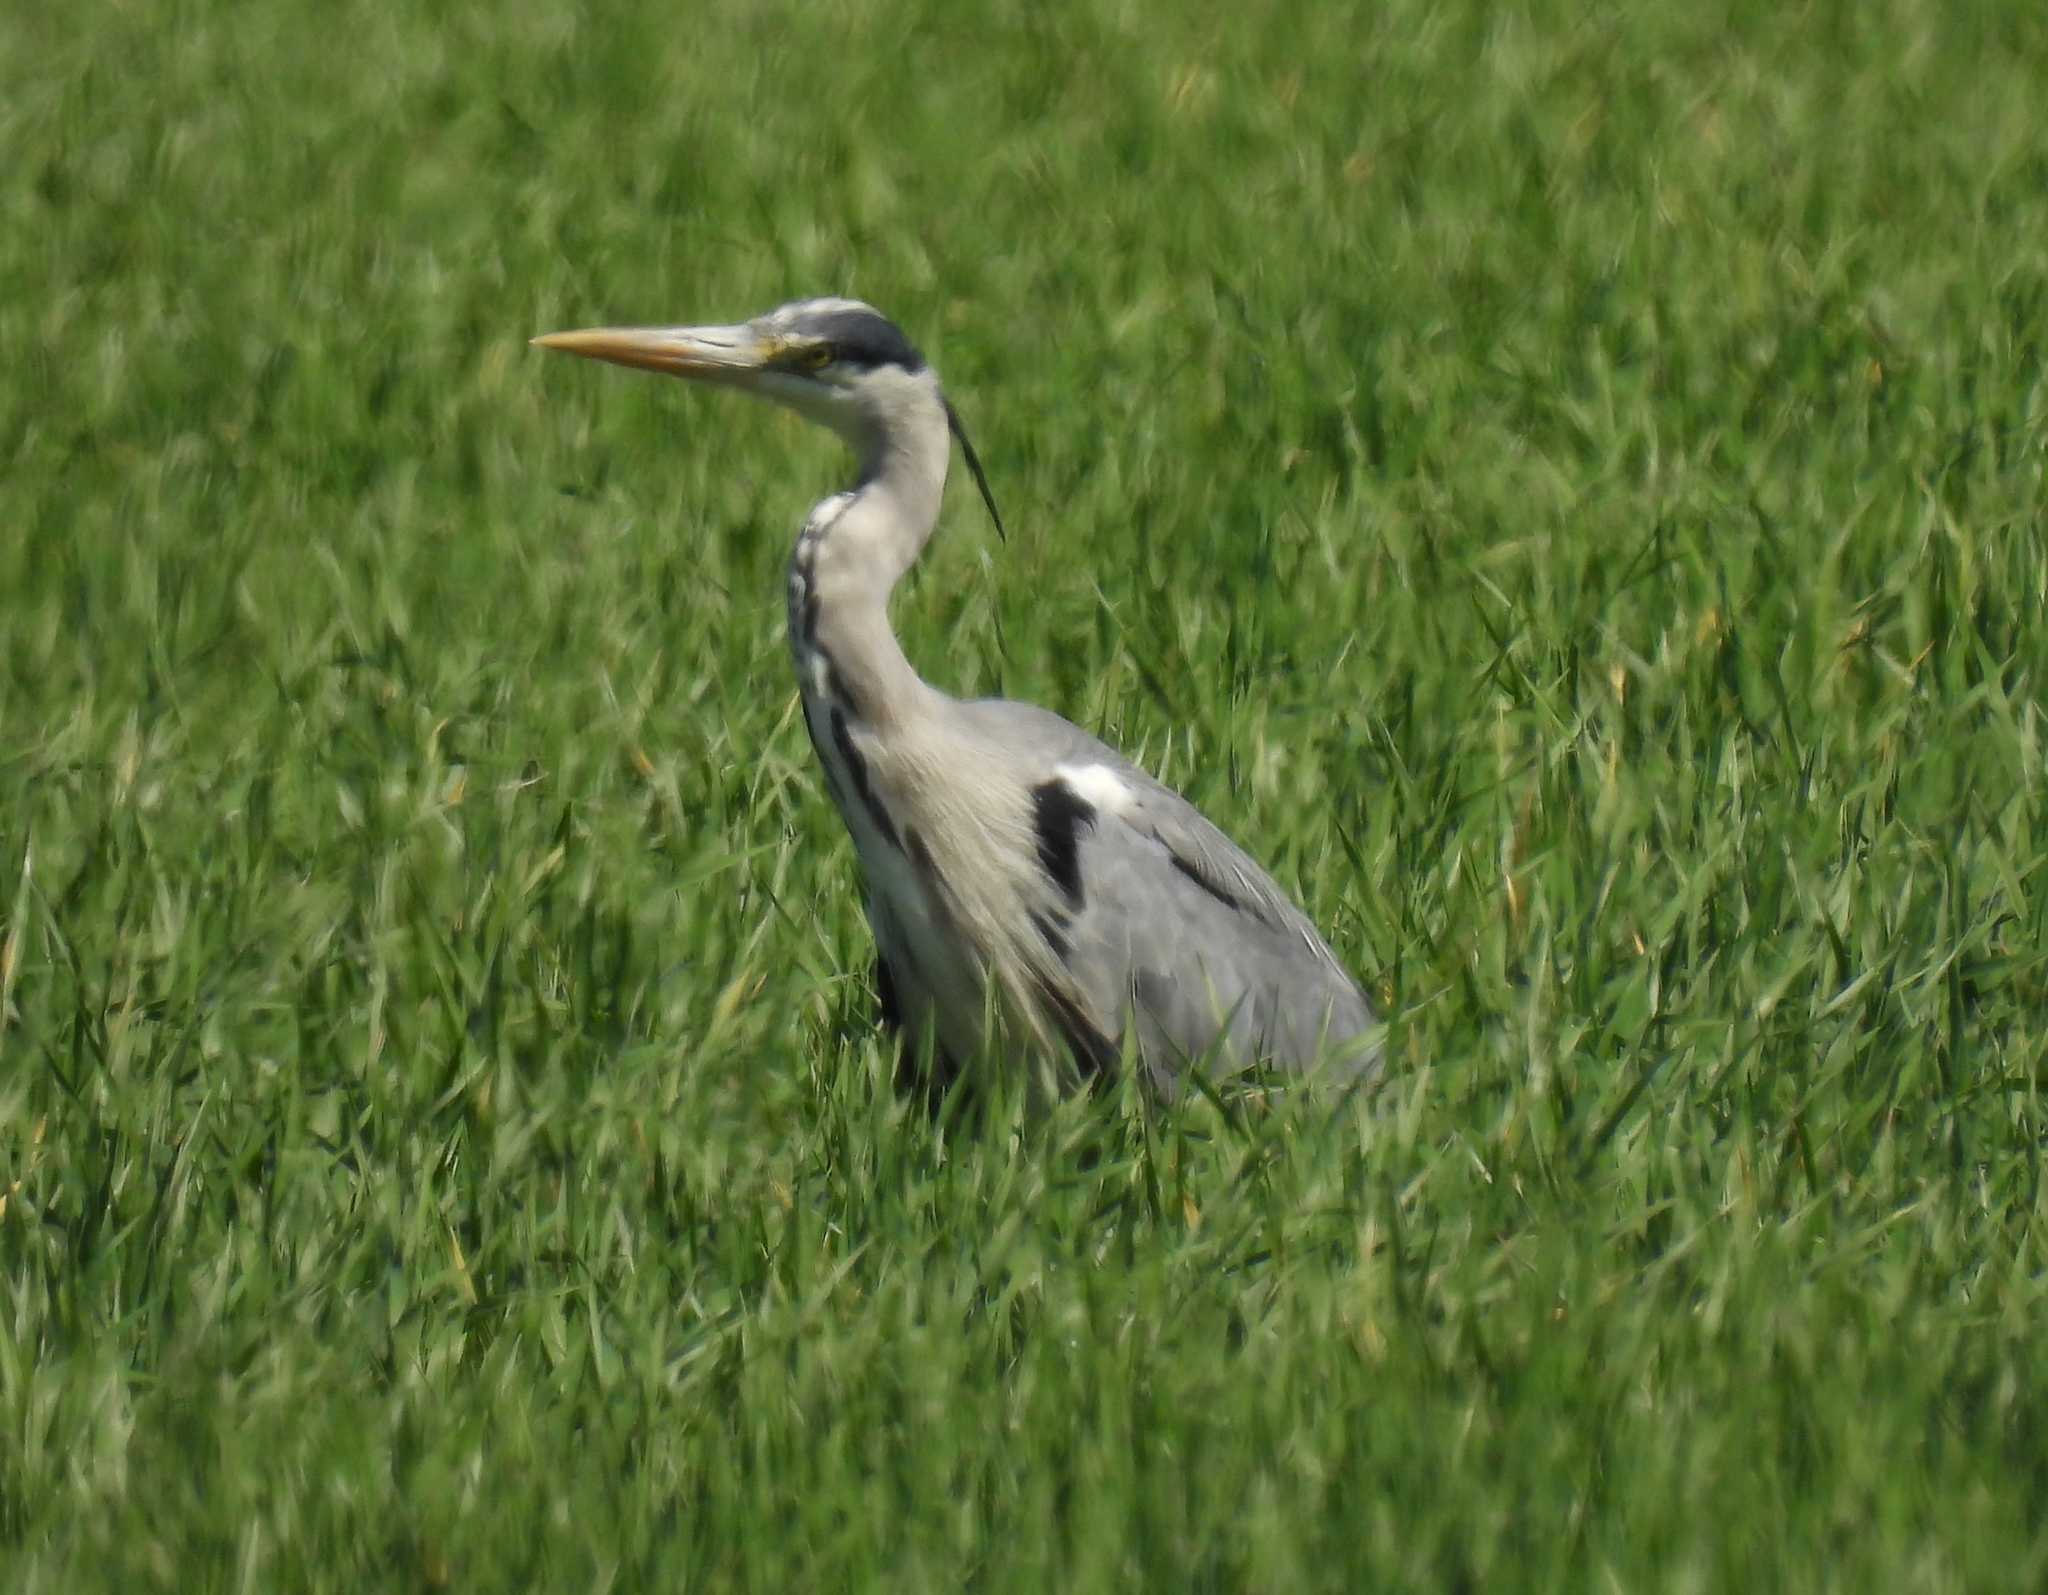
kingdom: Animalia
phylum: Chordata
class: Aves
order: Pelecaniformes
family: Ardeidae
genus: Ardea
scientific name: Ardea cinerea
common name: Grey heron
